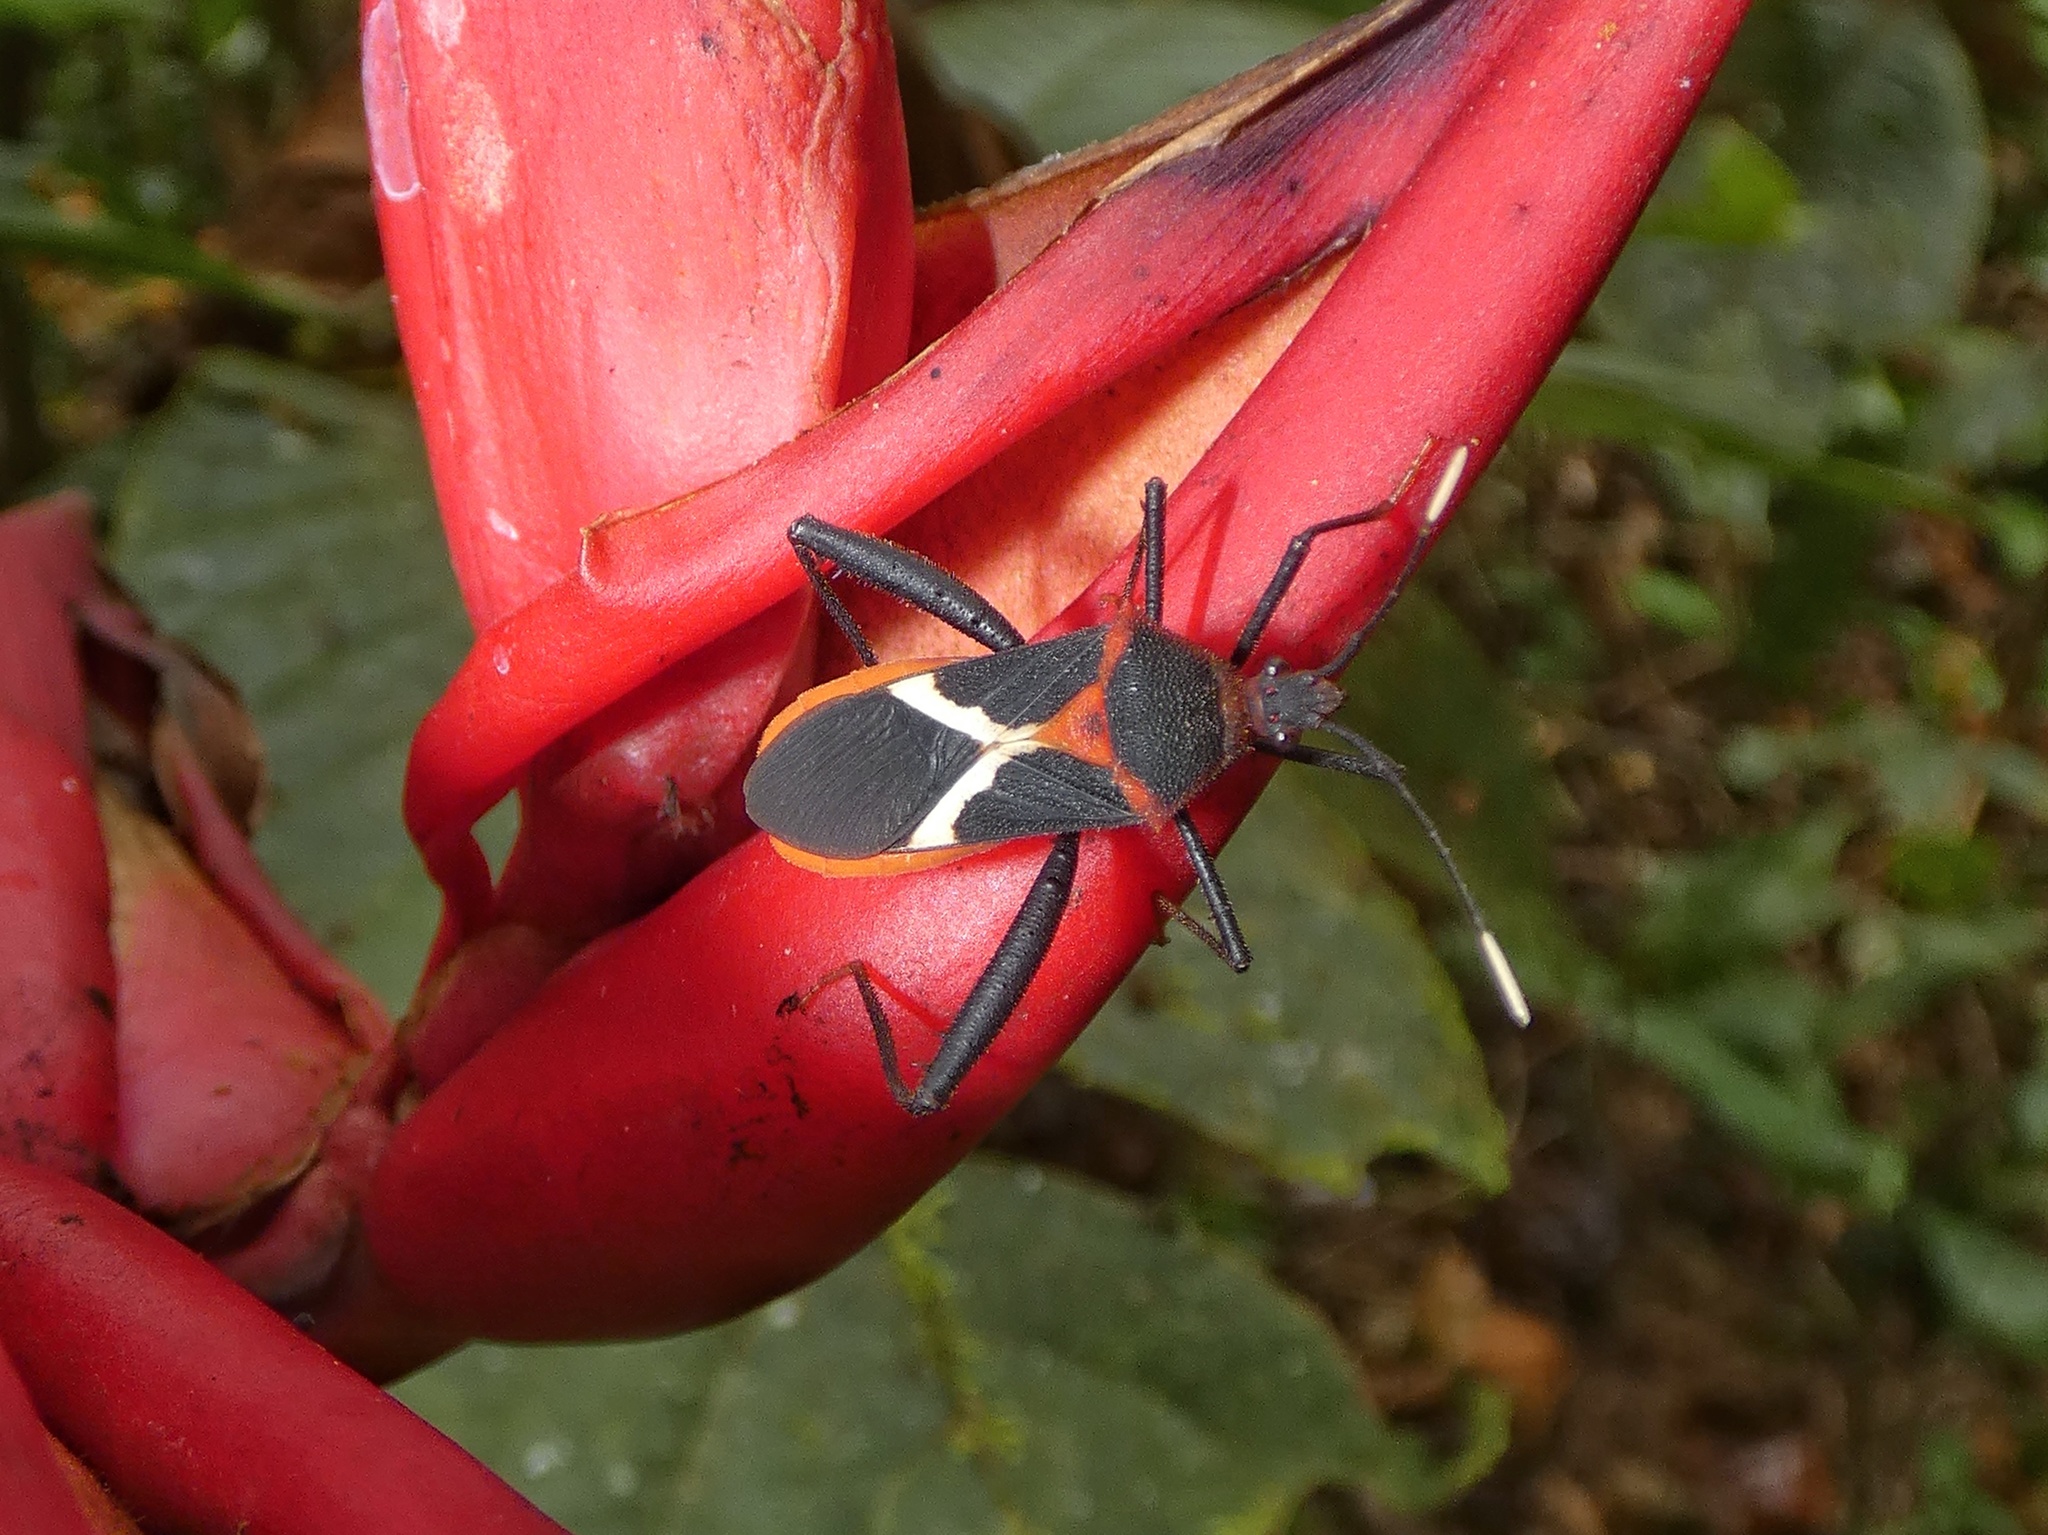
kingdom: Animalia
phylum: Arthropoda
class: Insecta
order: Hemiptera
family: Coreidae
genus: Leptoscelis
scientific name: Leptoscelis tricolor
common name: Heliconia bug
